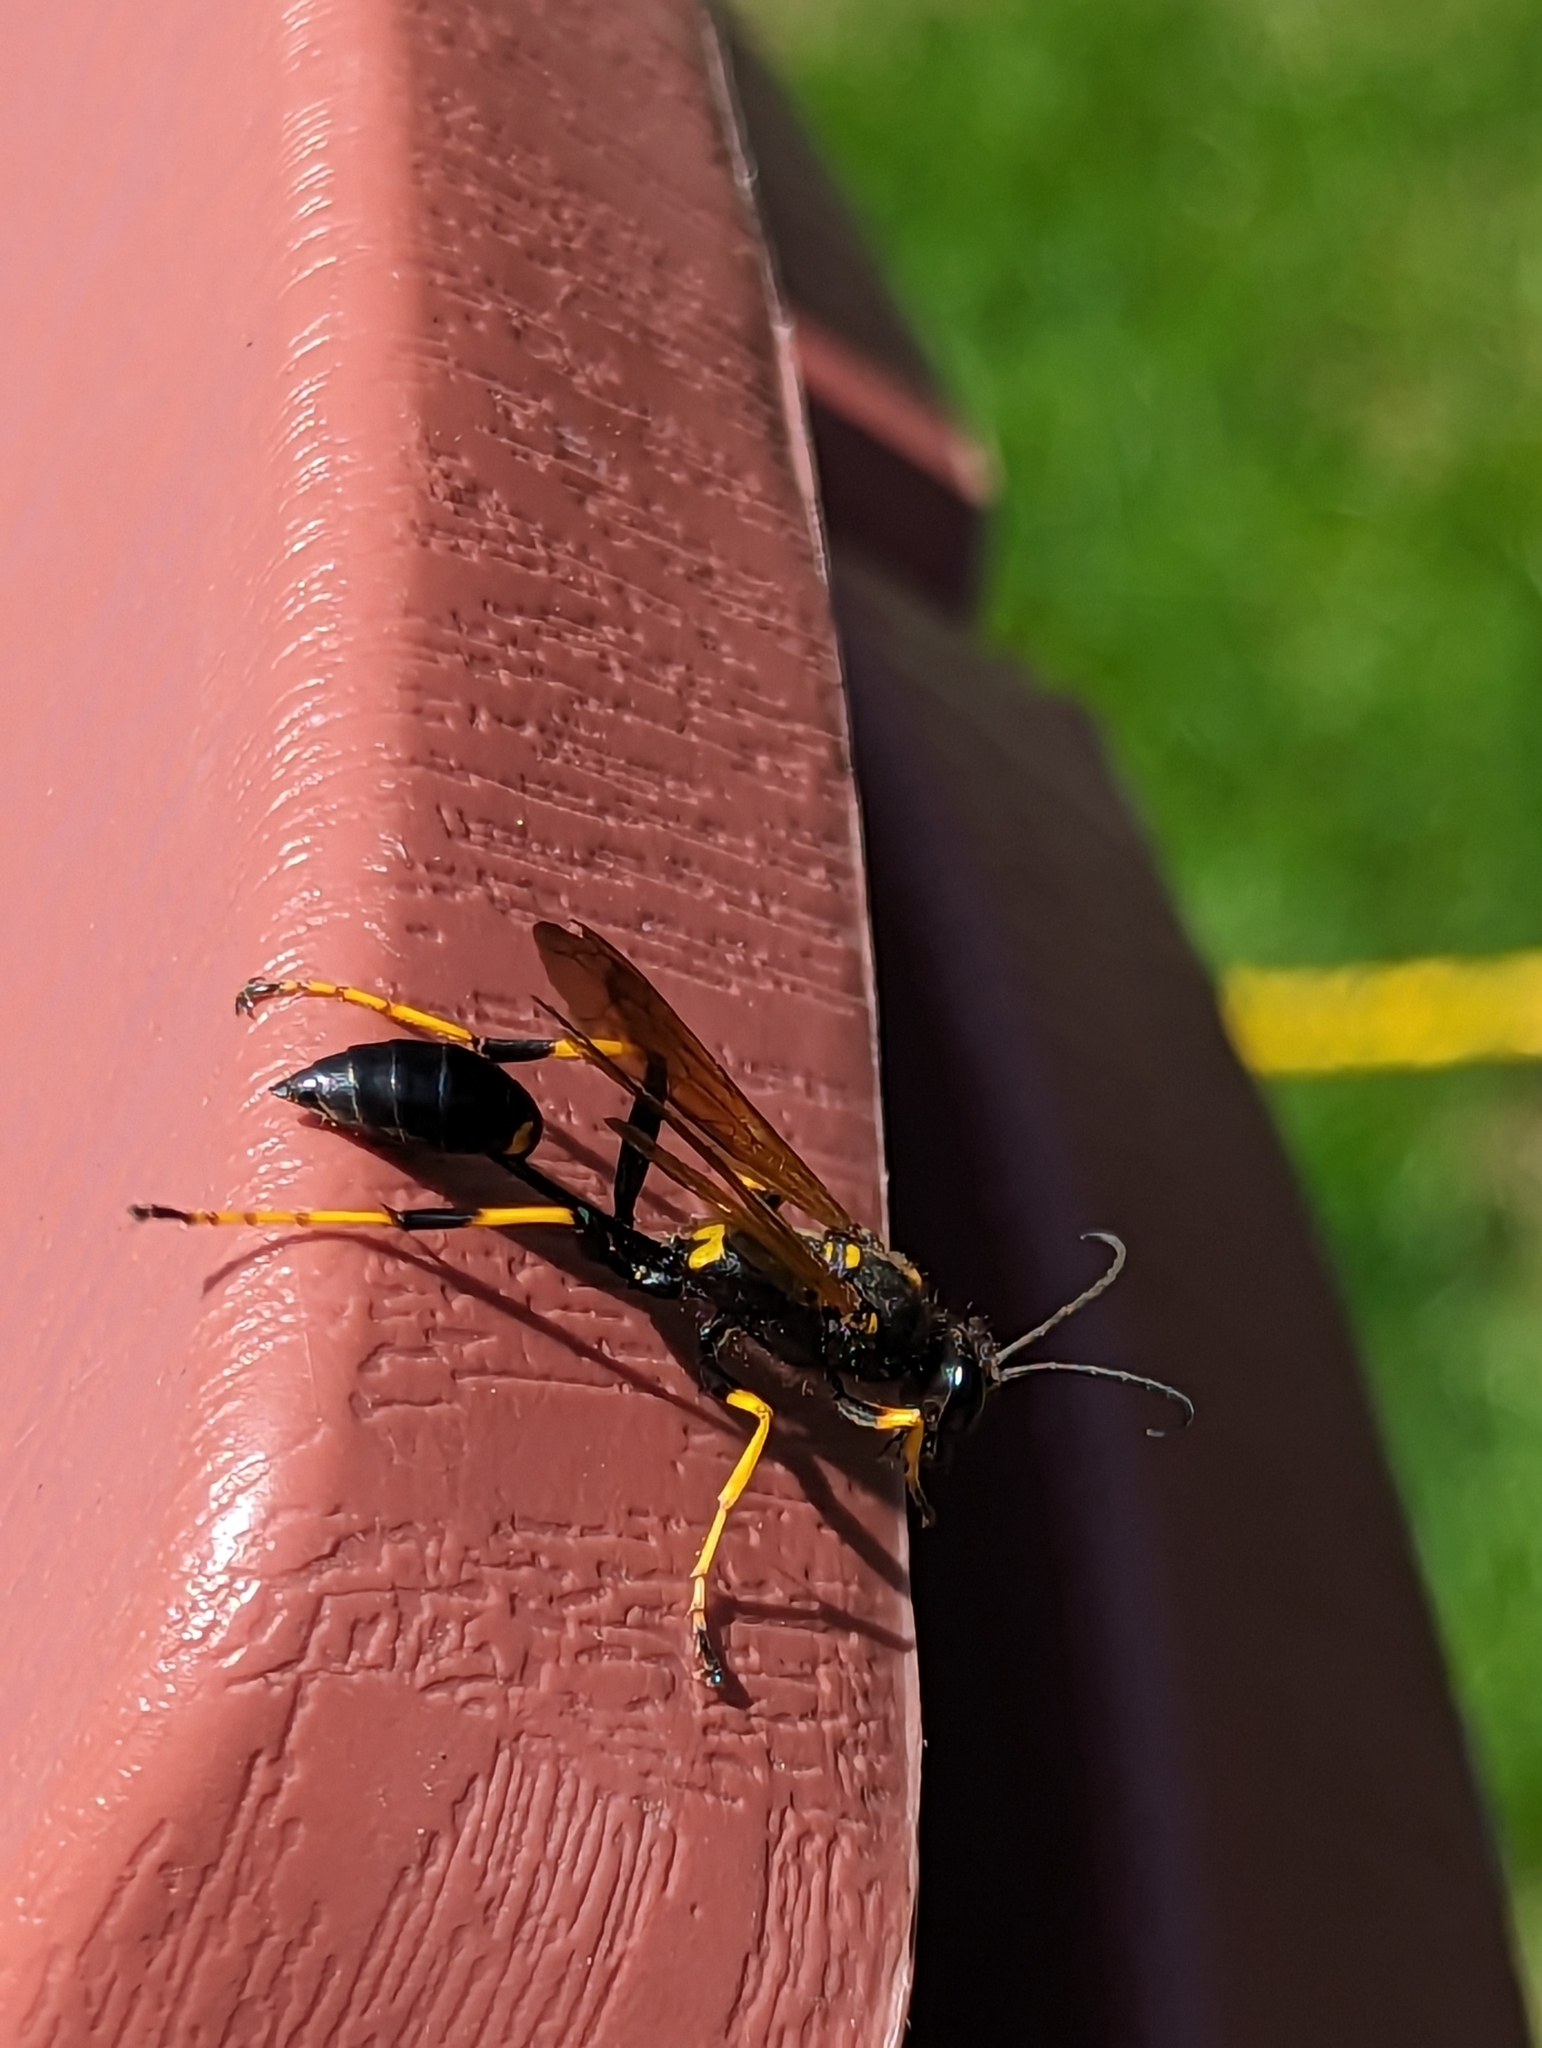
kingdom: Animalia
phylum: Arthropoda
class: Insecta
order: Hymenoptera
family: Sphecidae
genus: Sceliphron
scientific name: Sceliphron caementarium
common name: Mud dauber
